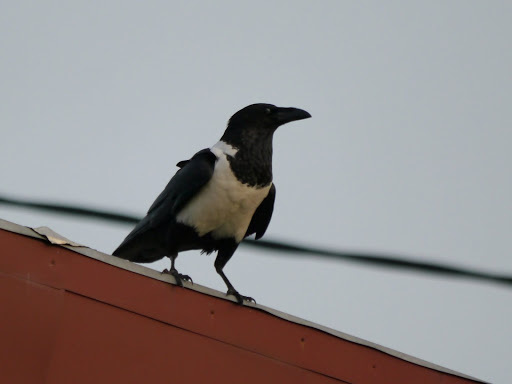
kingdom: Animalia
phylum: Chordata
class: Aves
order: Passeriformes
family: Corvidae
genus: Corvus
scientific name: Corvus albus
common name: Pied crow
